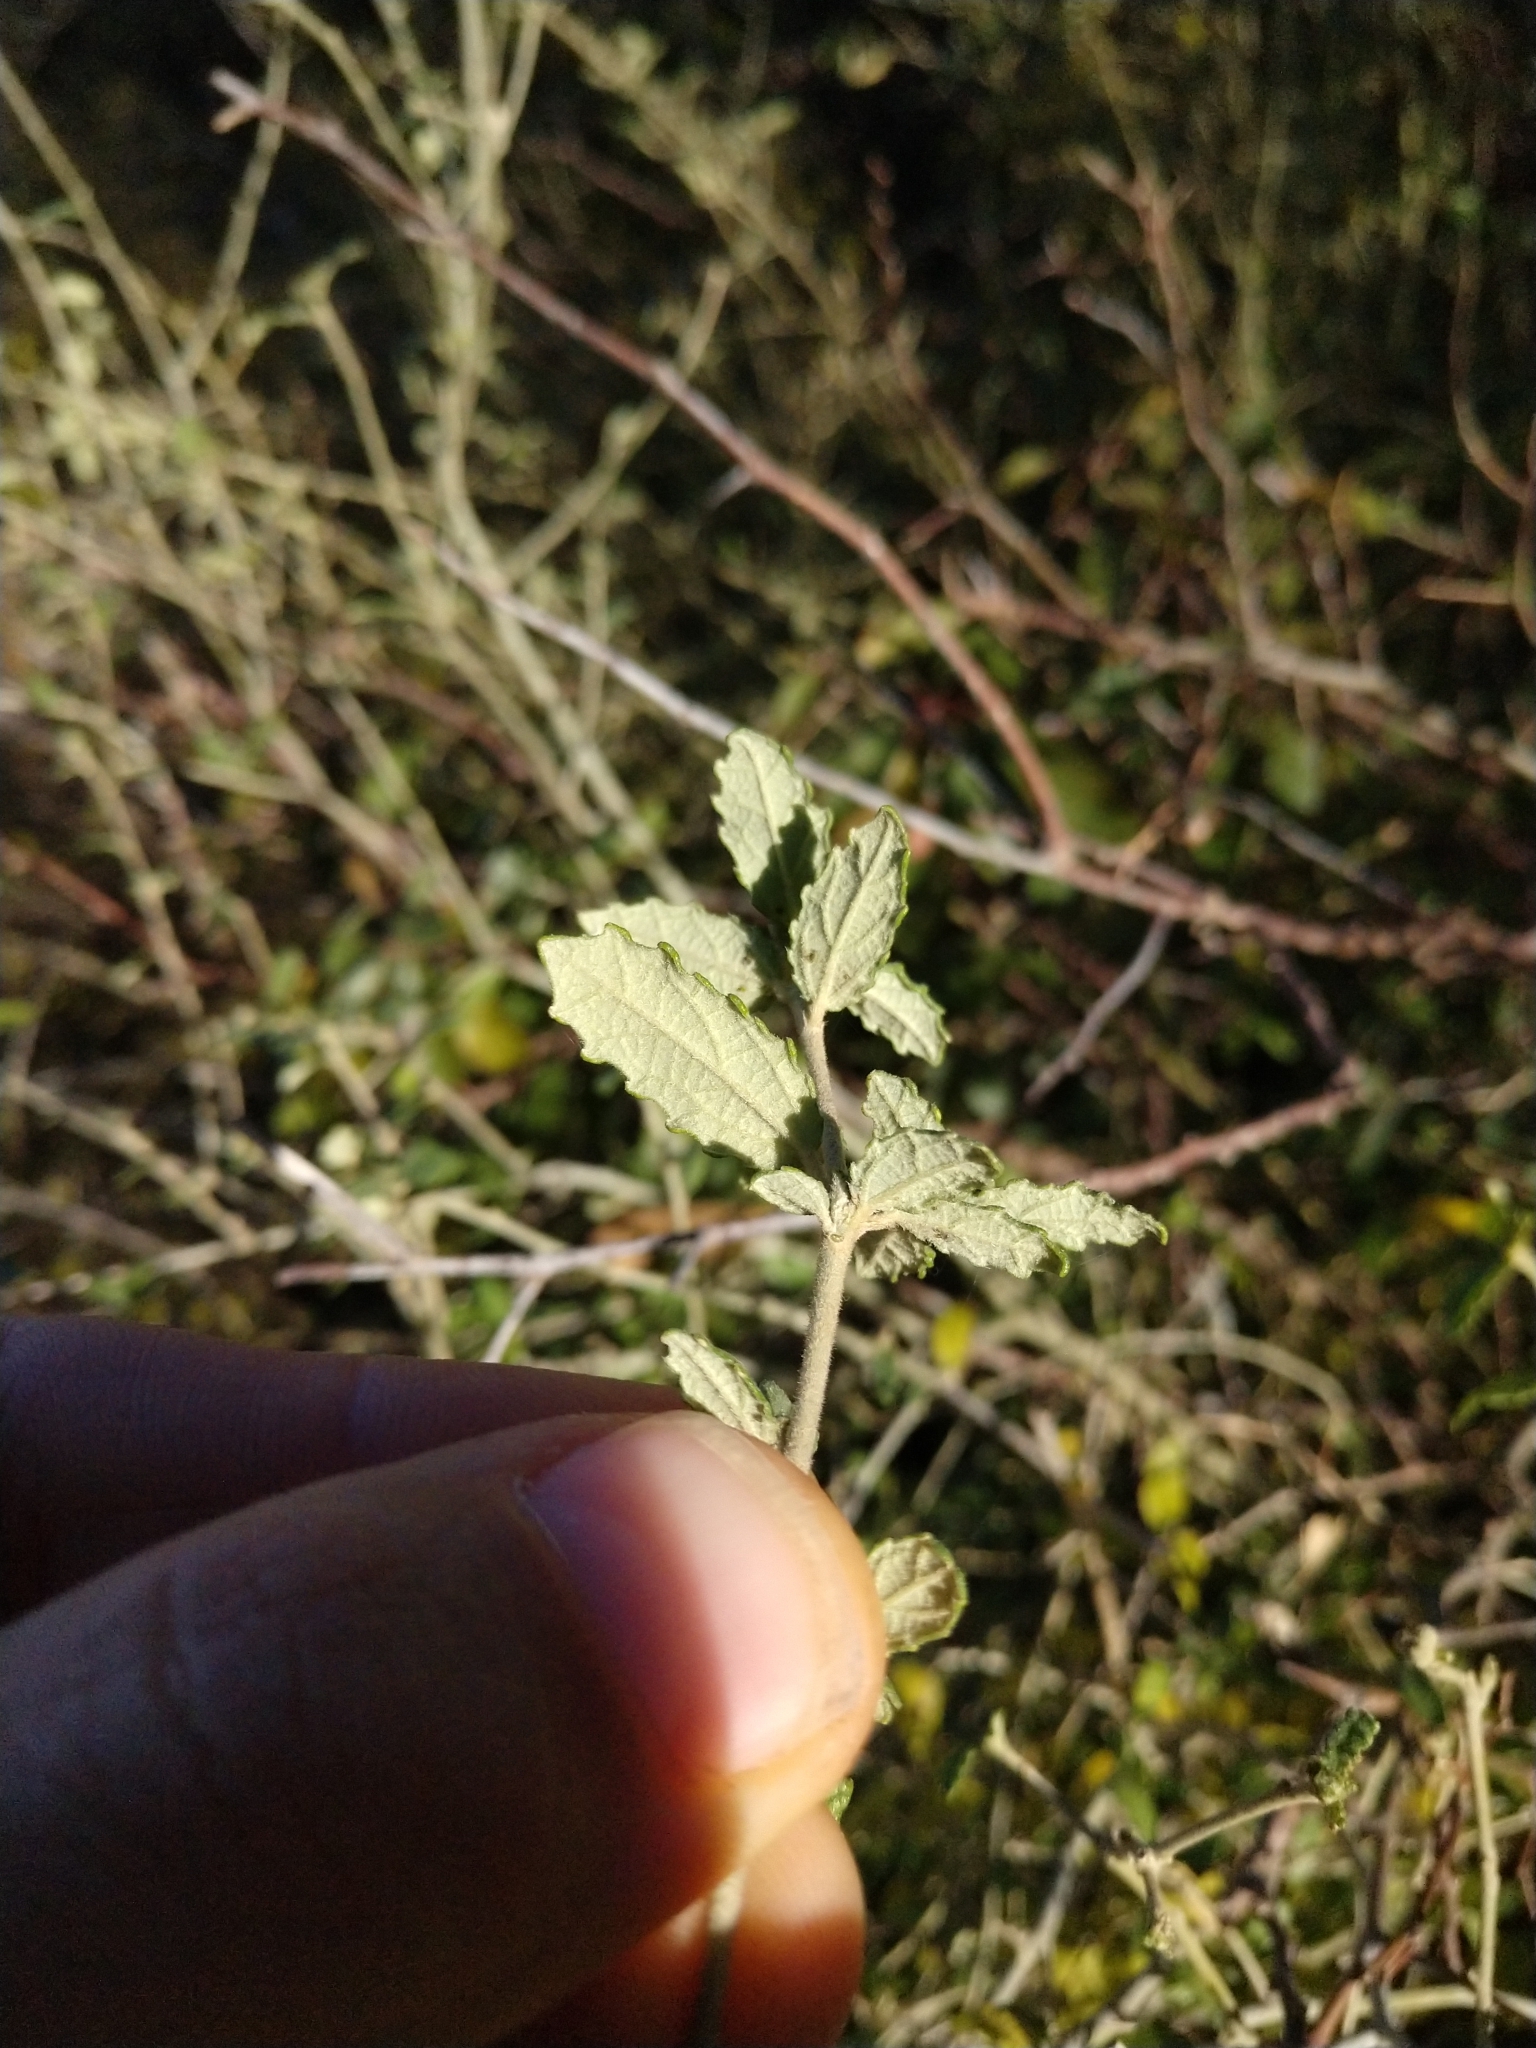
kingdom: Plantae
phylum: Tracheophyta
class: Magnoliopsida
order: Malpighiales
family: Euphorbiaceae
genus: Bernardia
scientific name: Bernardia myricifolia
